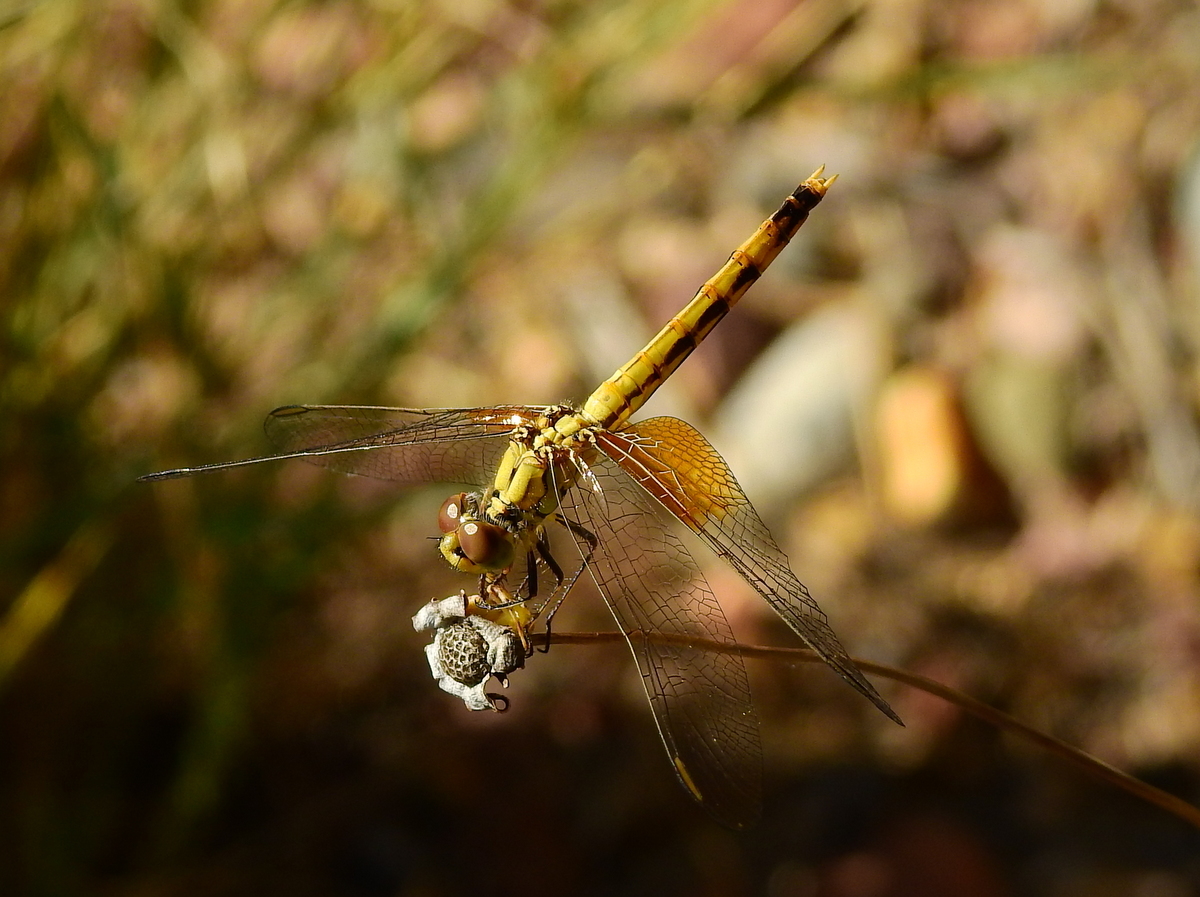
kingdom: Animalia
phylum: Arthropoda
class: Insecta
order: Odonata
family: Libellulidae
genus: Erythrodiplax
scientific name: Erythrodiplax corallina
